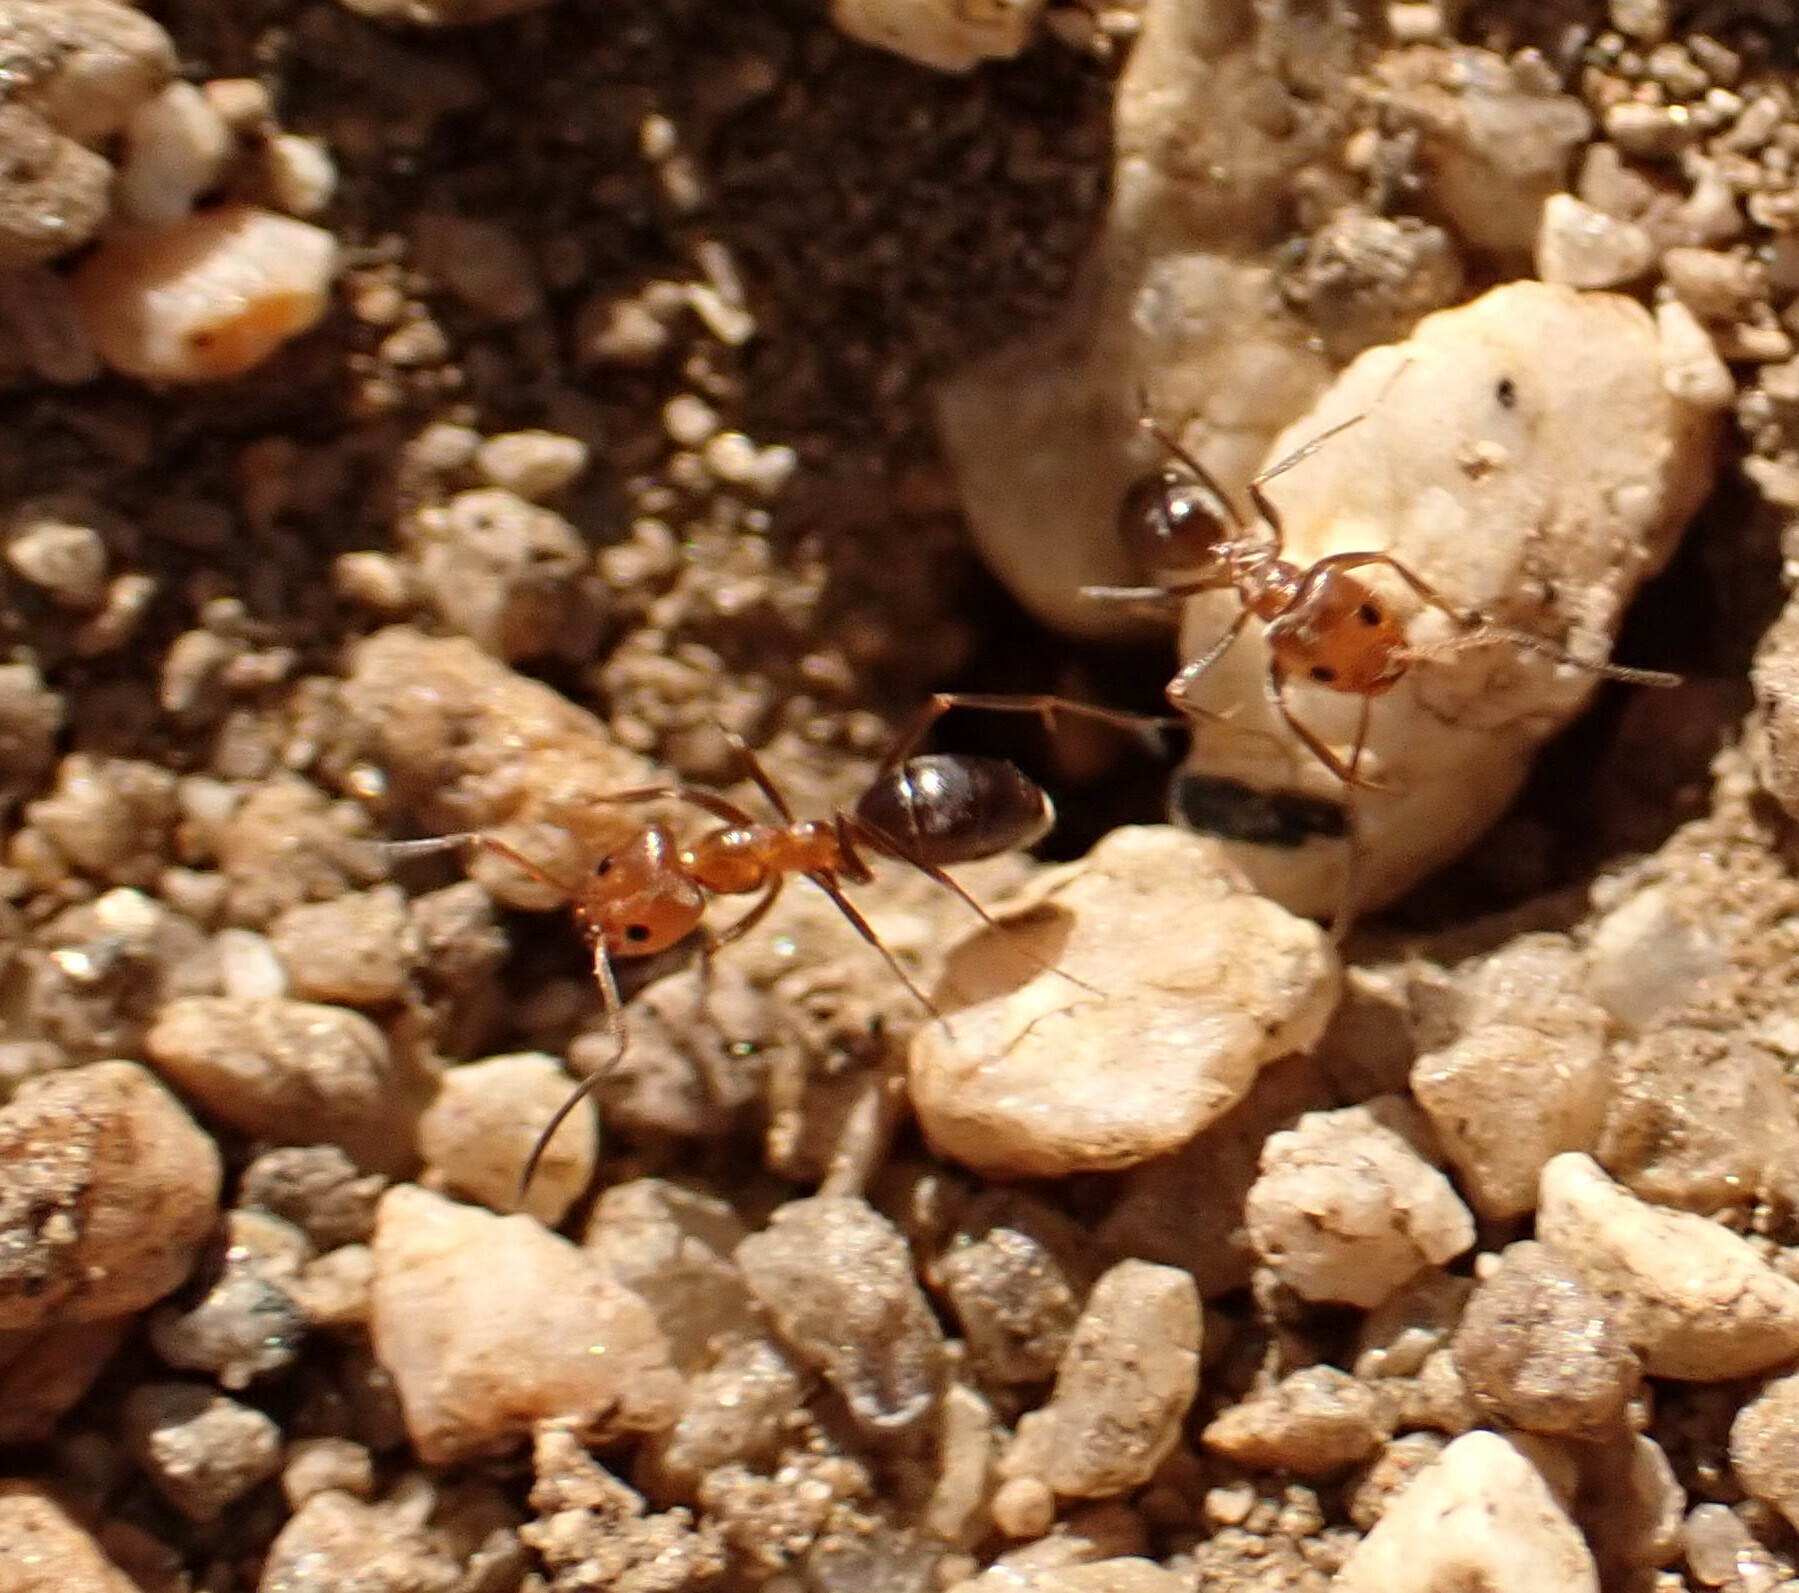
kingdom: Animalia
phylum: Arthropoda
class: Insecta
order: Hymenoptera
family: Formicidae
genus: Dorymyrmex
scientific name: Dorymyrmex bicolor
